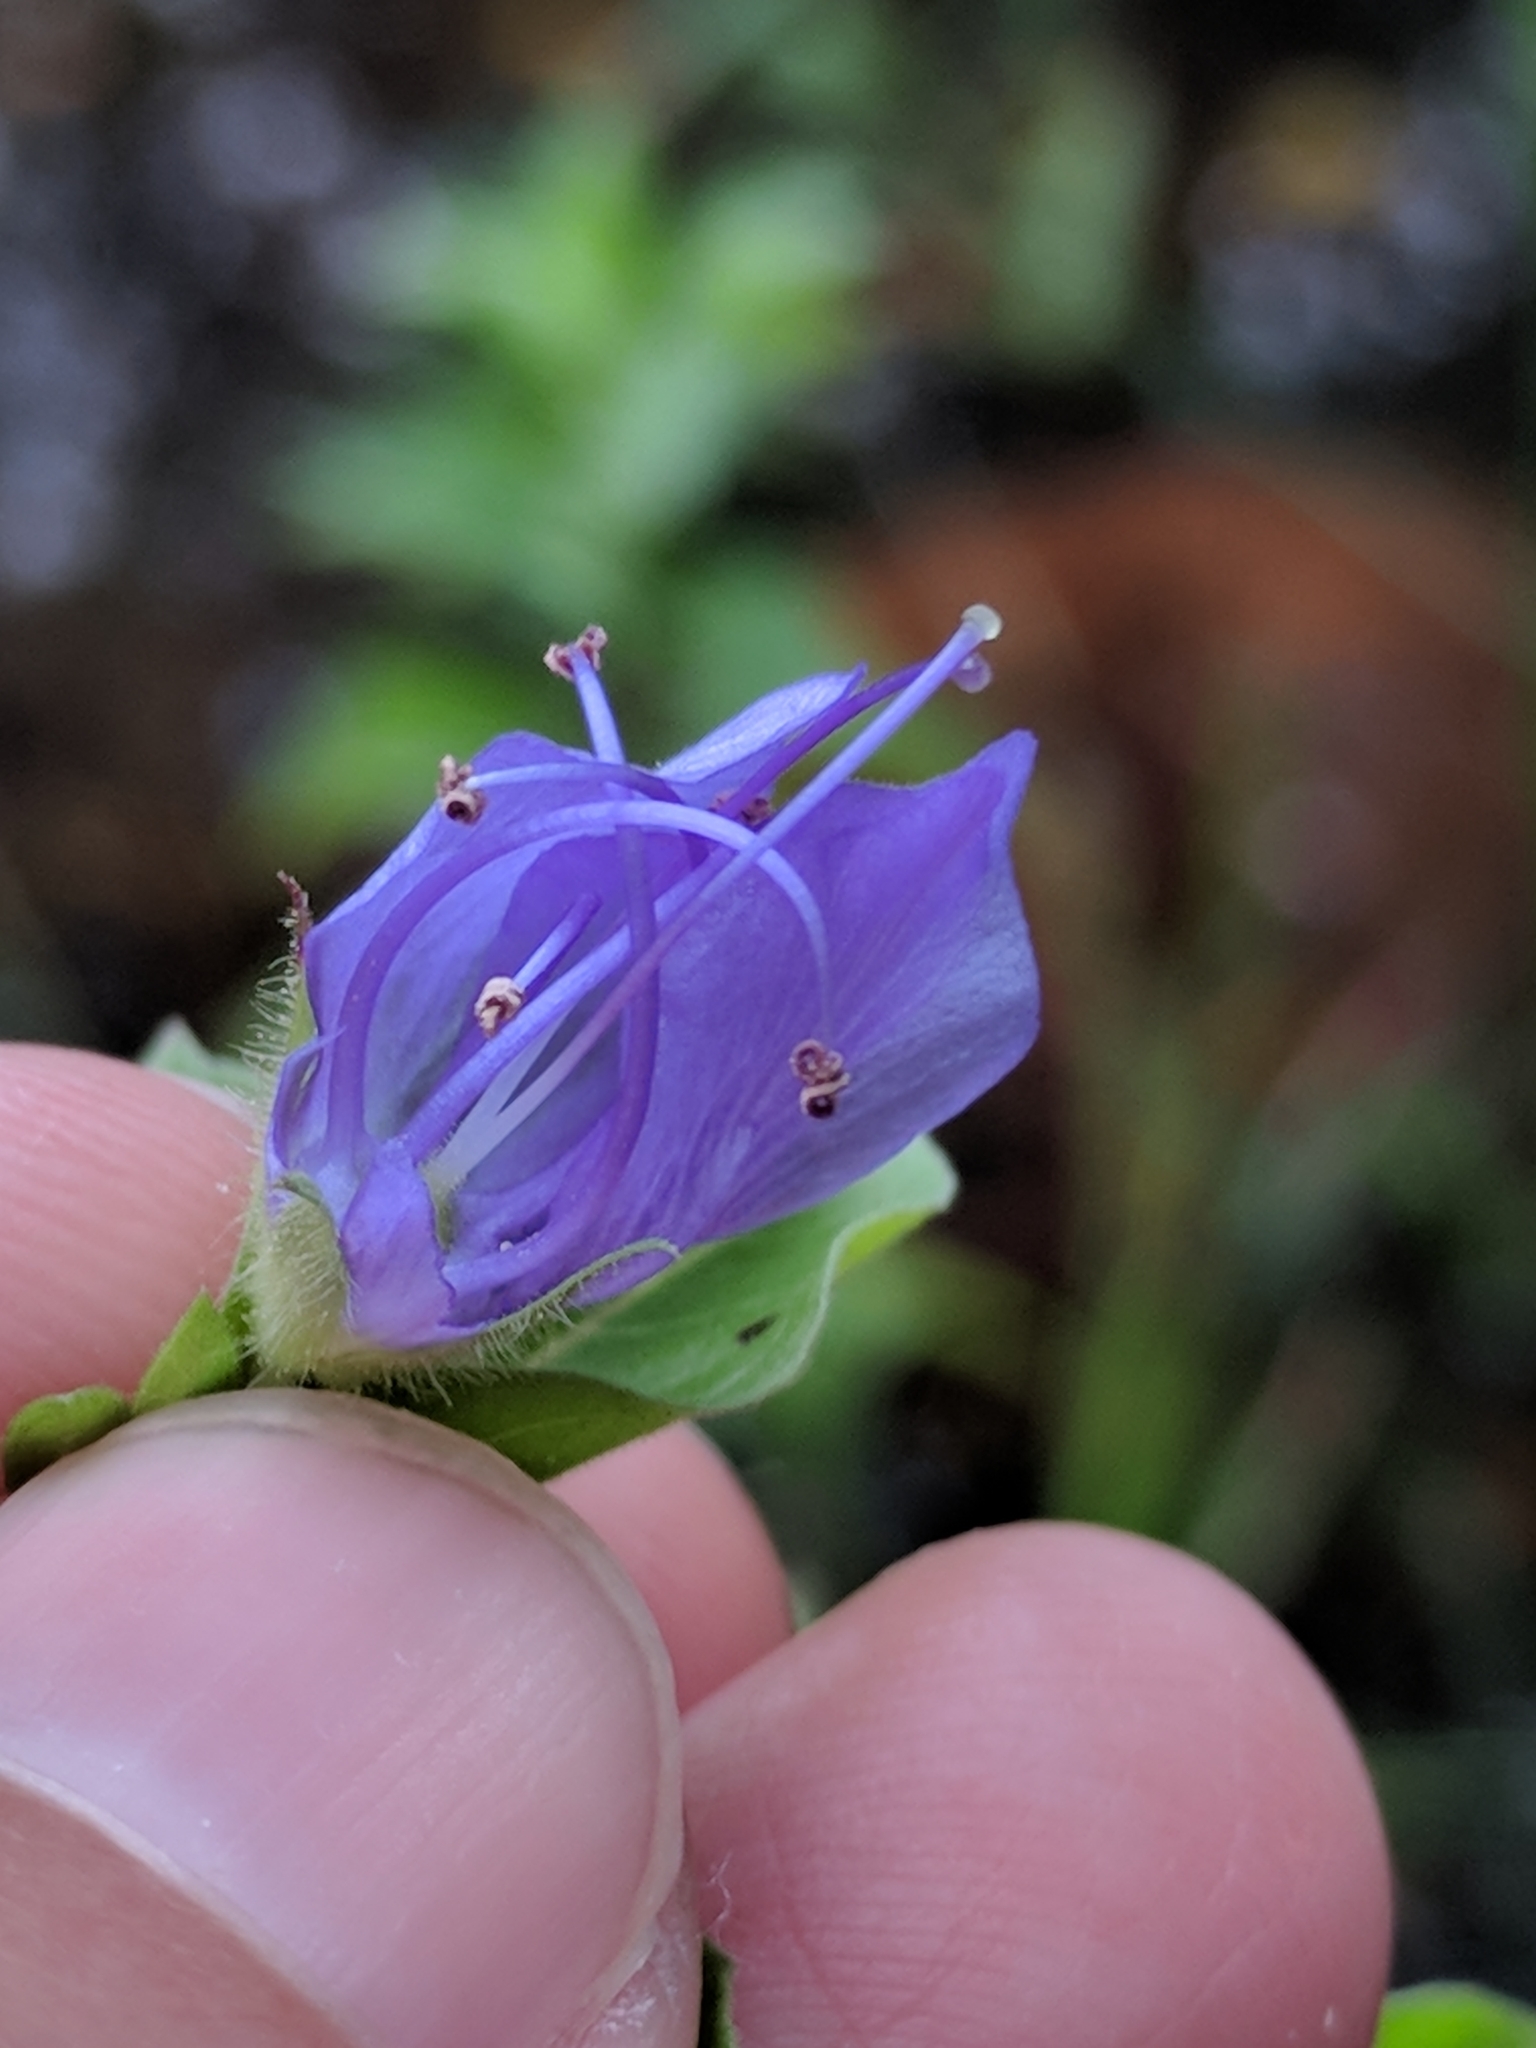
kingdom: Plantae
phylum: Tracheophyta
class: Magnoliopsida
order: Solanales
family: Hydroleaceae
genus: Hydrolea
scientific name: Hydrolea ovata
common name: Ovate false fiddleleaf
